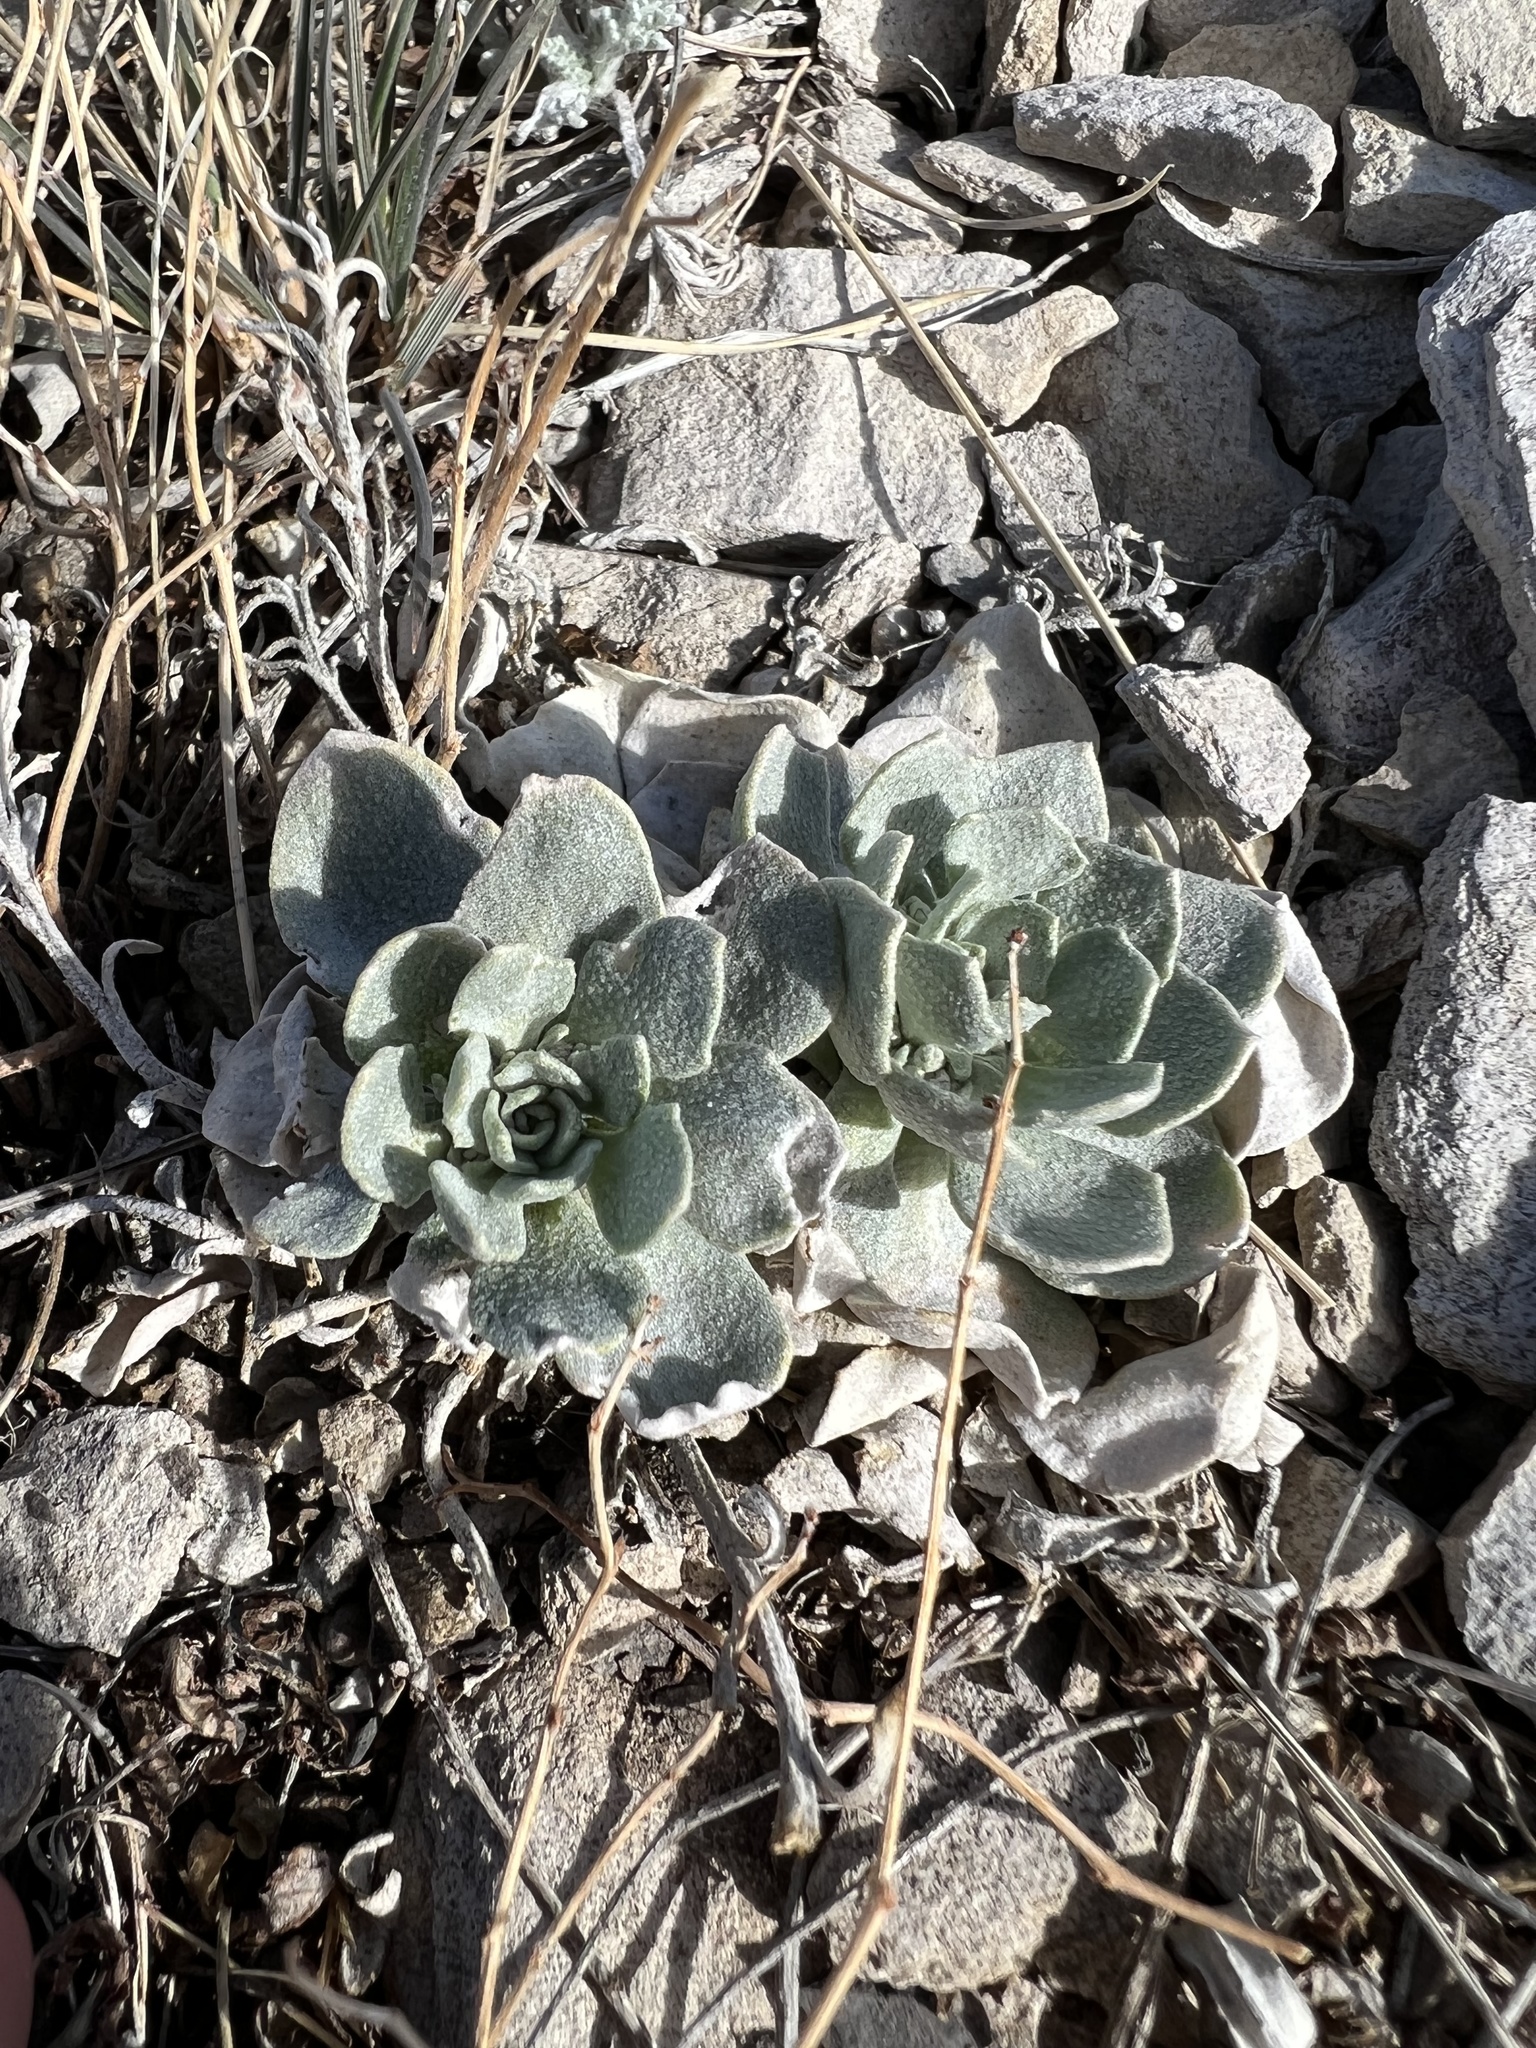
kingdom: Plantae
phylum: Tracheophyta
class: Magnoliopsida
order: Brassicales
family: Brassicaceae
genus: Physaria
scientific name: Physaria bellii
